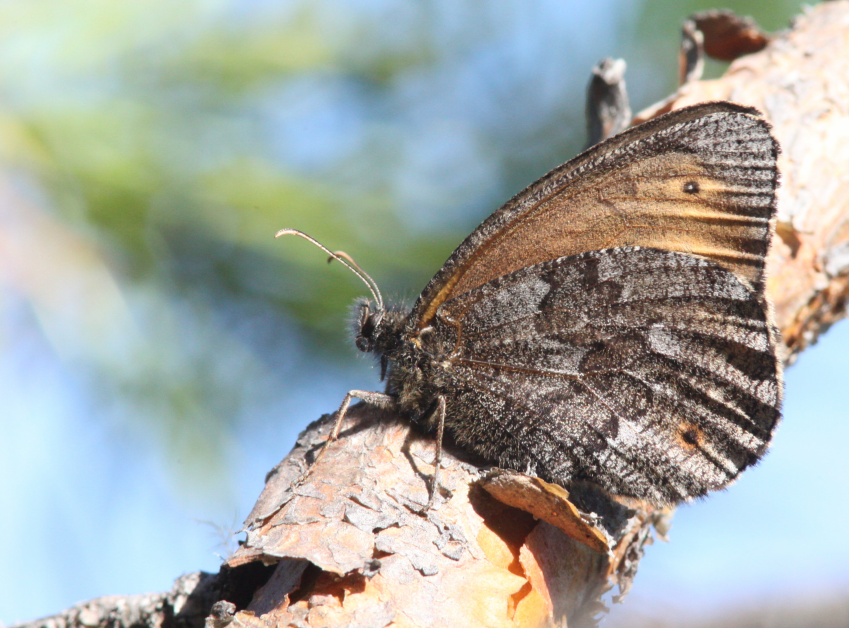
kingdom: Animalia
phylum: Arthropoda
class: Insecta
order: Lepidoptera
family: Nymphalidae
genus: Oeneis
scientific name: Oeneis jutta
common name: Baltic grayling
